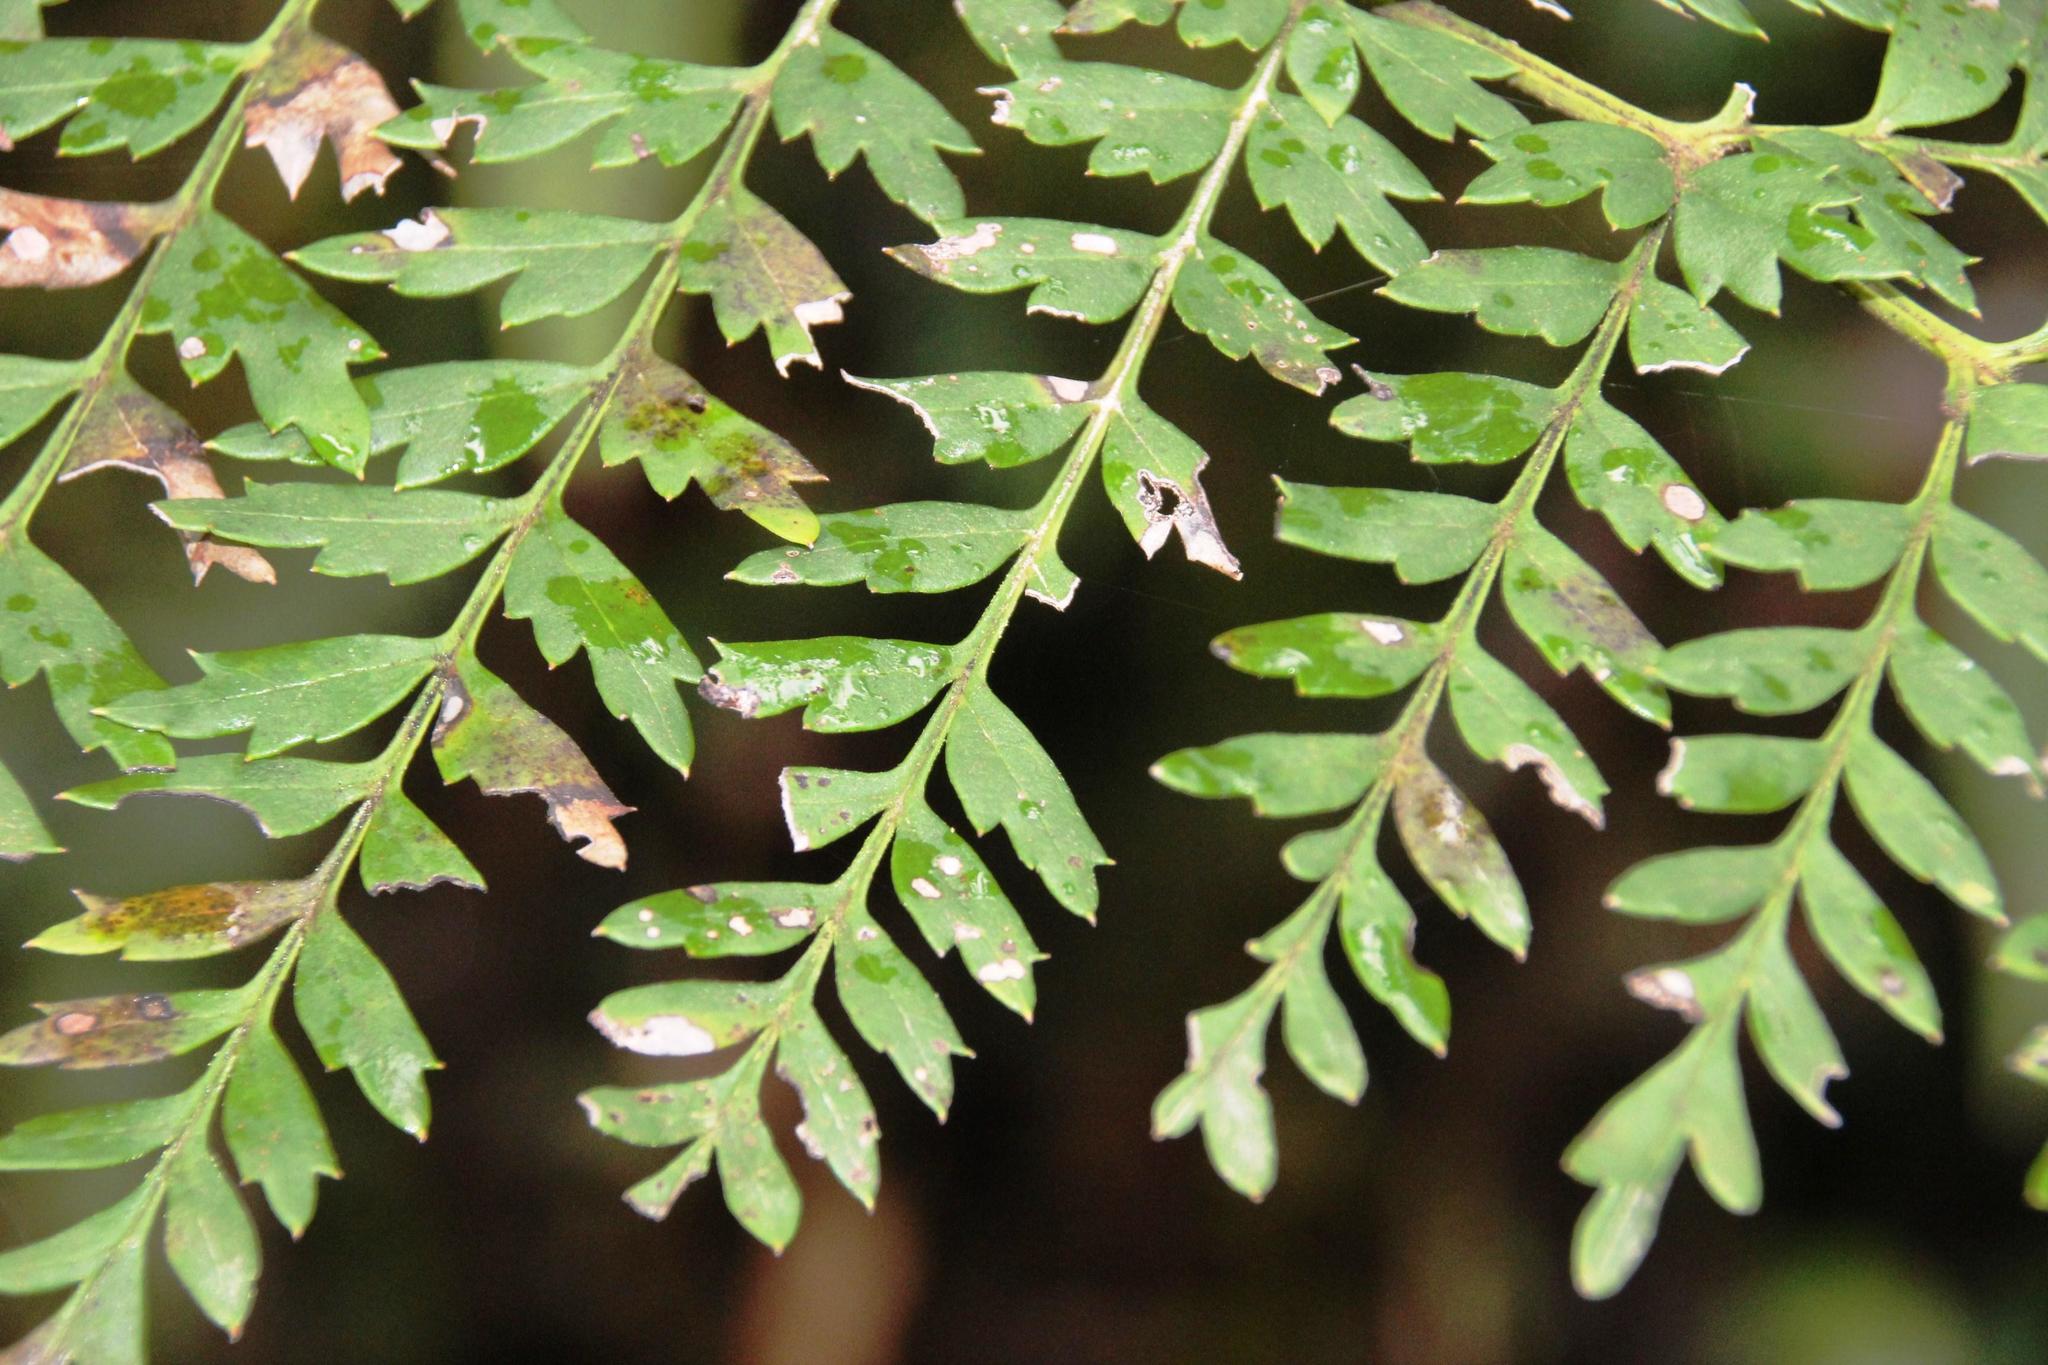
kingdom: Plantae
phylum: Tracheophyta
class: Magnoliopsida
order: Proteales
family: Proteaceae
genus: Lomatia
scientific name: Lomatia ferruginea
